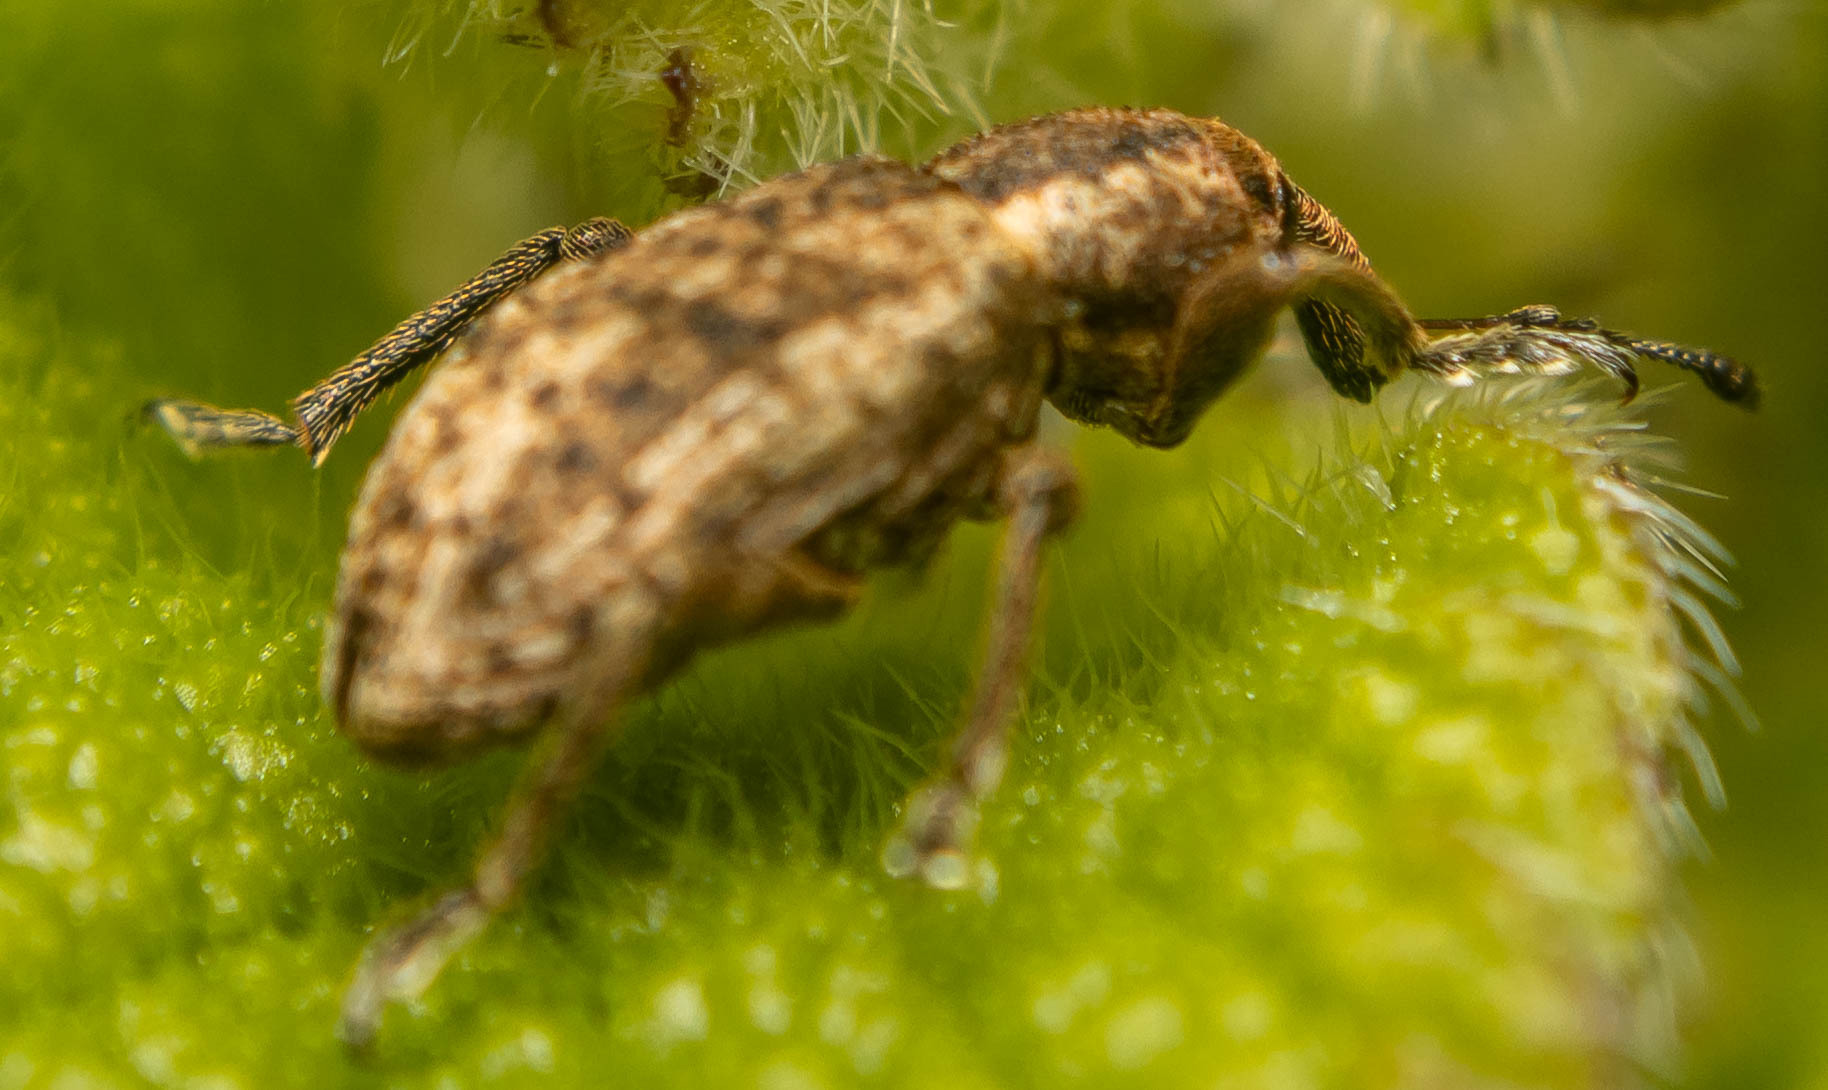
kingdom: Animalia
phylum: Arthropoda
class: Insecta
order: Coleoptera
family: Curculionidae
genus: Hypera
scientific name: Hypera conmaculata
